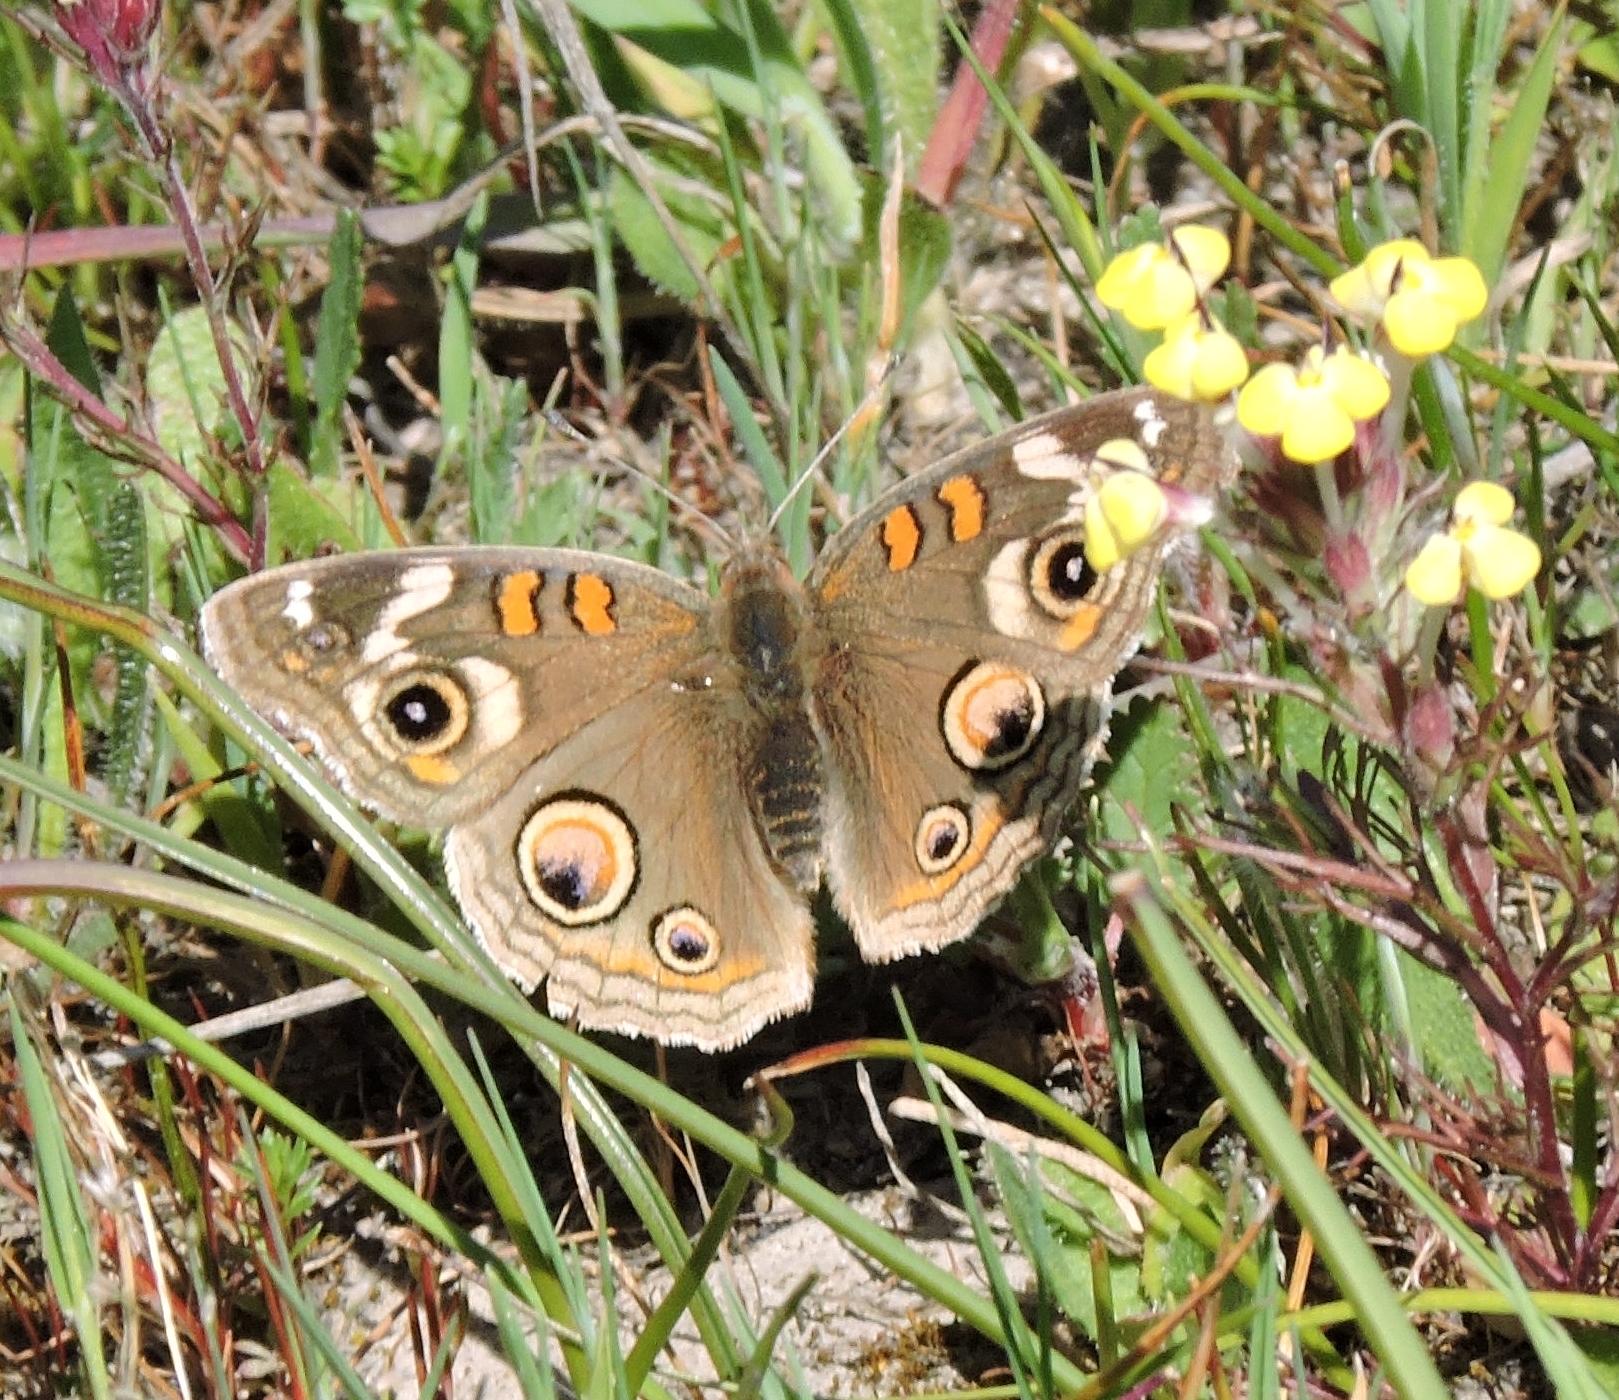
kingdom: Animalia
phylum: Arthropoda
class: Insecta
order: Lepidoptera
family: Nymphalidae
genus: Junonia
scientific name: Junonia grisea
